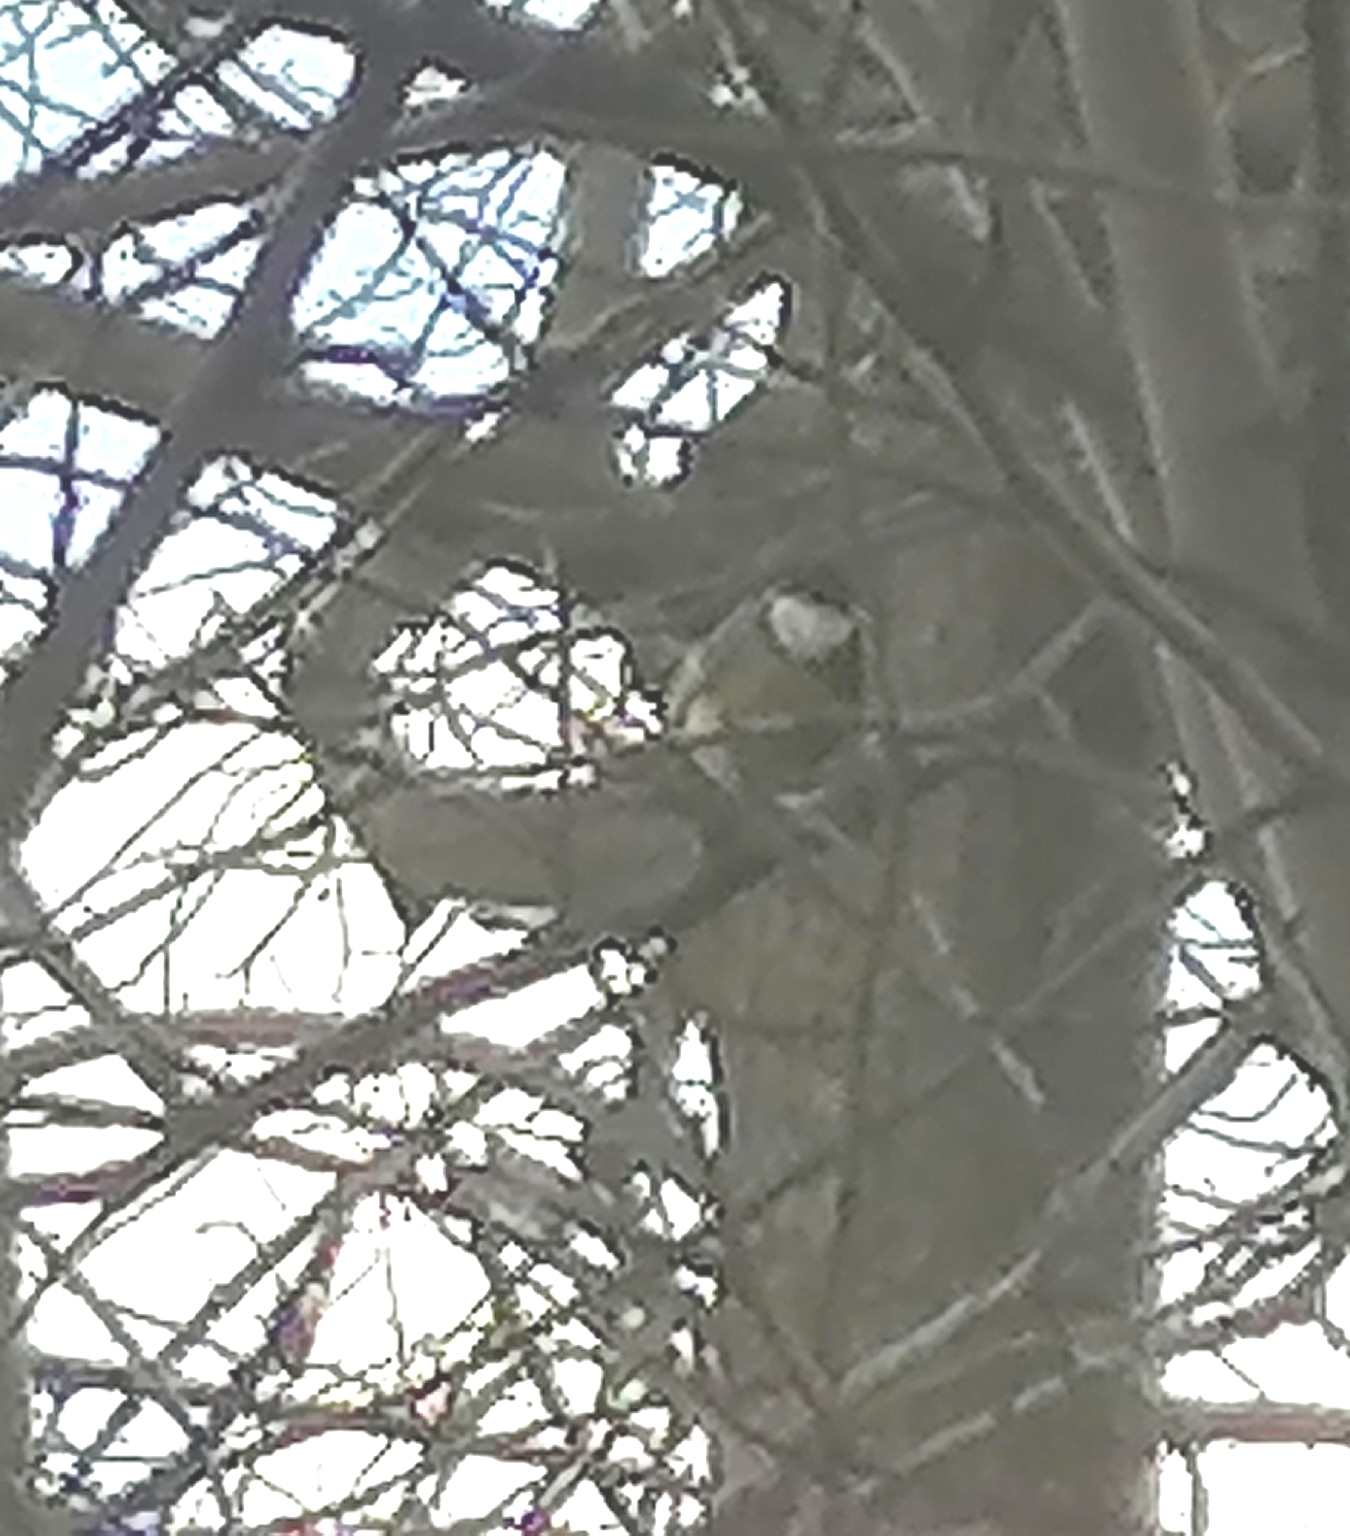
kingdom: Animalia
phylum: Chordata
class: Aves
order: Passeriformes
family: Paridae
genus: Parus
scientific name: Parus major
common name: Great tit
